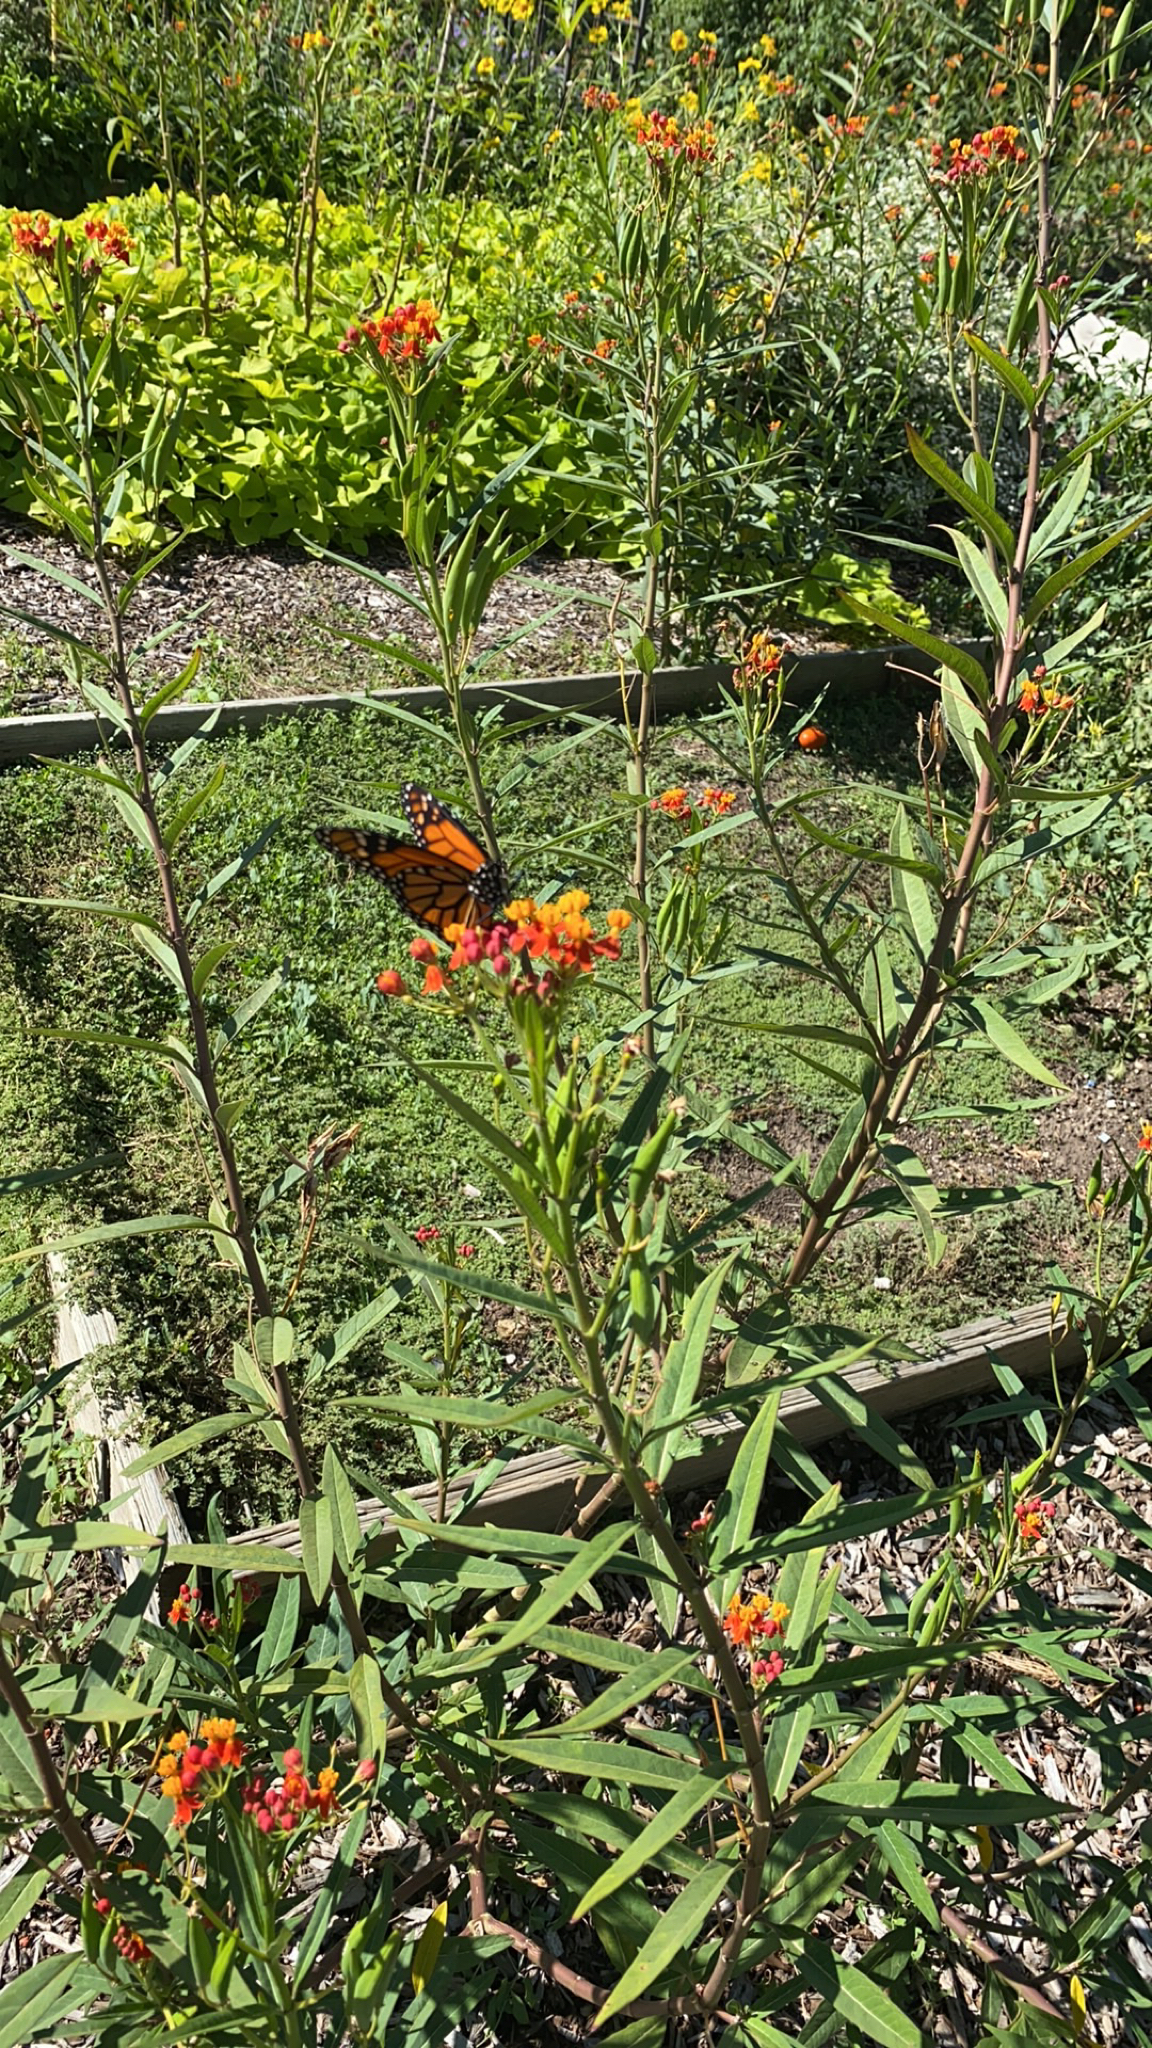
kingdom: Animalia
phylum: Arthropoda
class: Insecta
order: Lepidoptera
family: Nymphalidae
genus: Danaus
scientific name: Danaus plexippus
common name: Monarch
